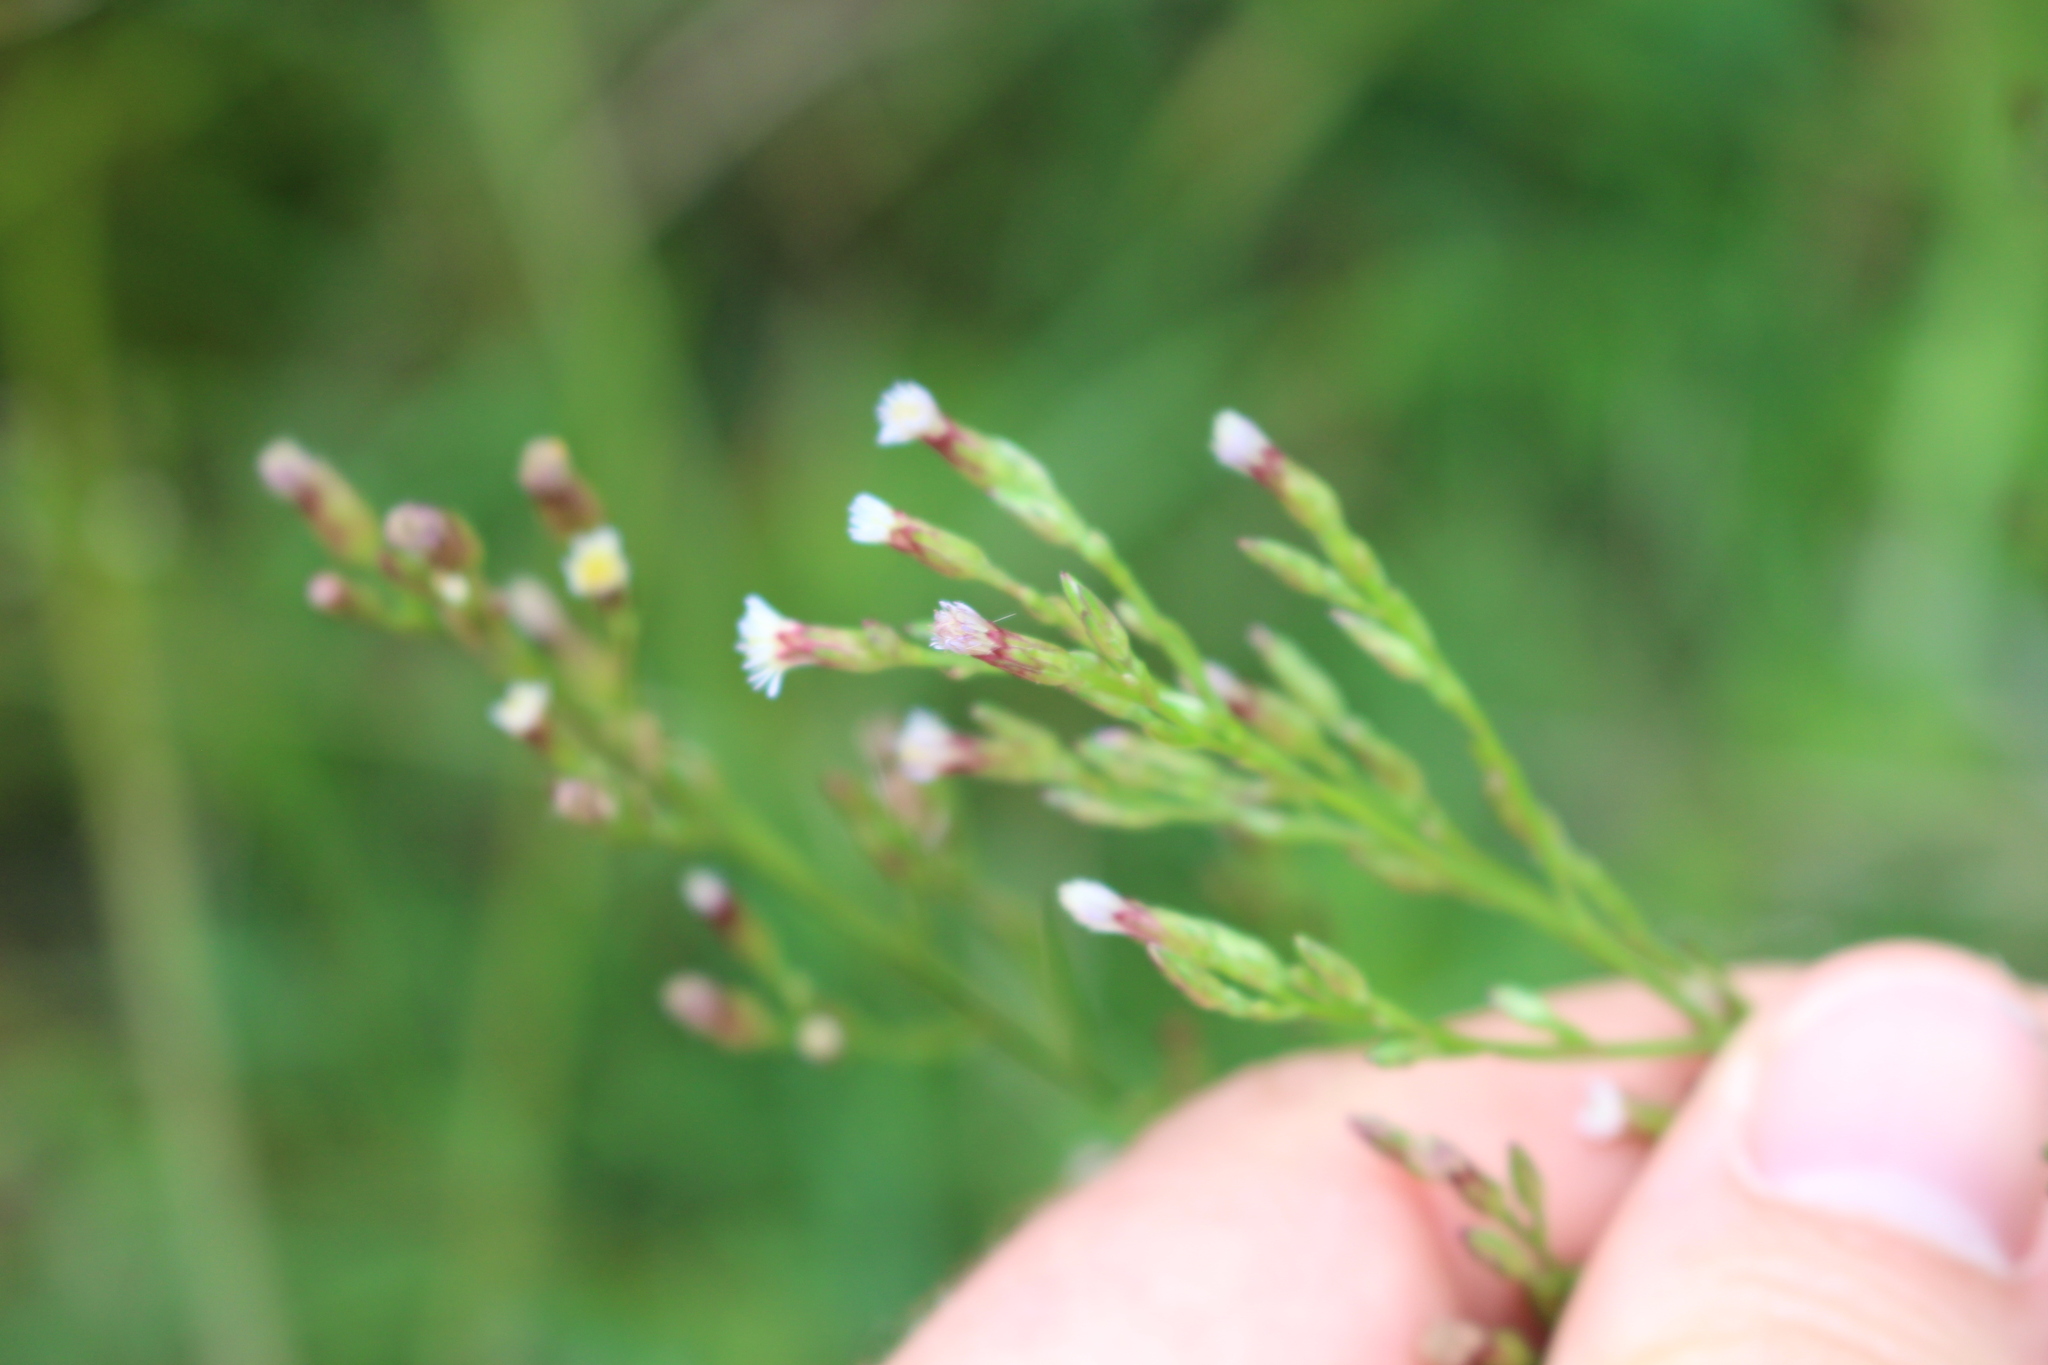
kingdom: Plantae
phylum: Tracheophyta
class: Magnoliopsida
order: Asterales
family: Asteraceae
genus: Symphyotrichum
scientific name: Symphyotrichum subulatum
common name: Annual saltmarsh aster
